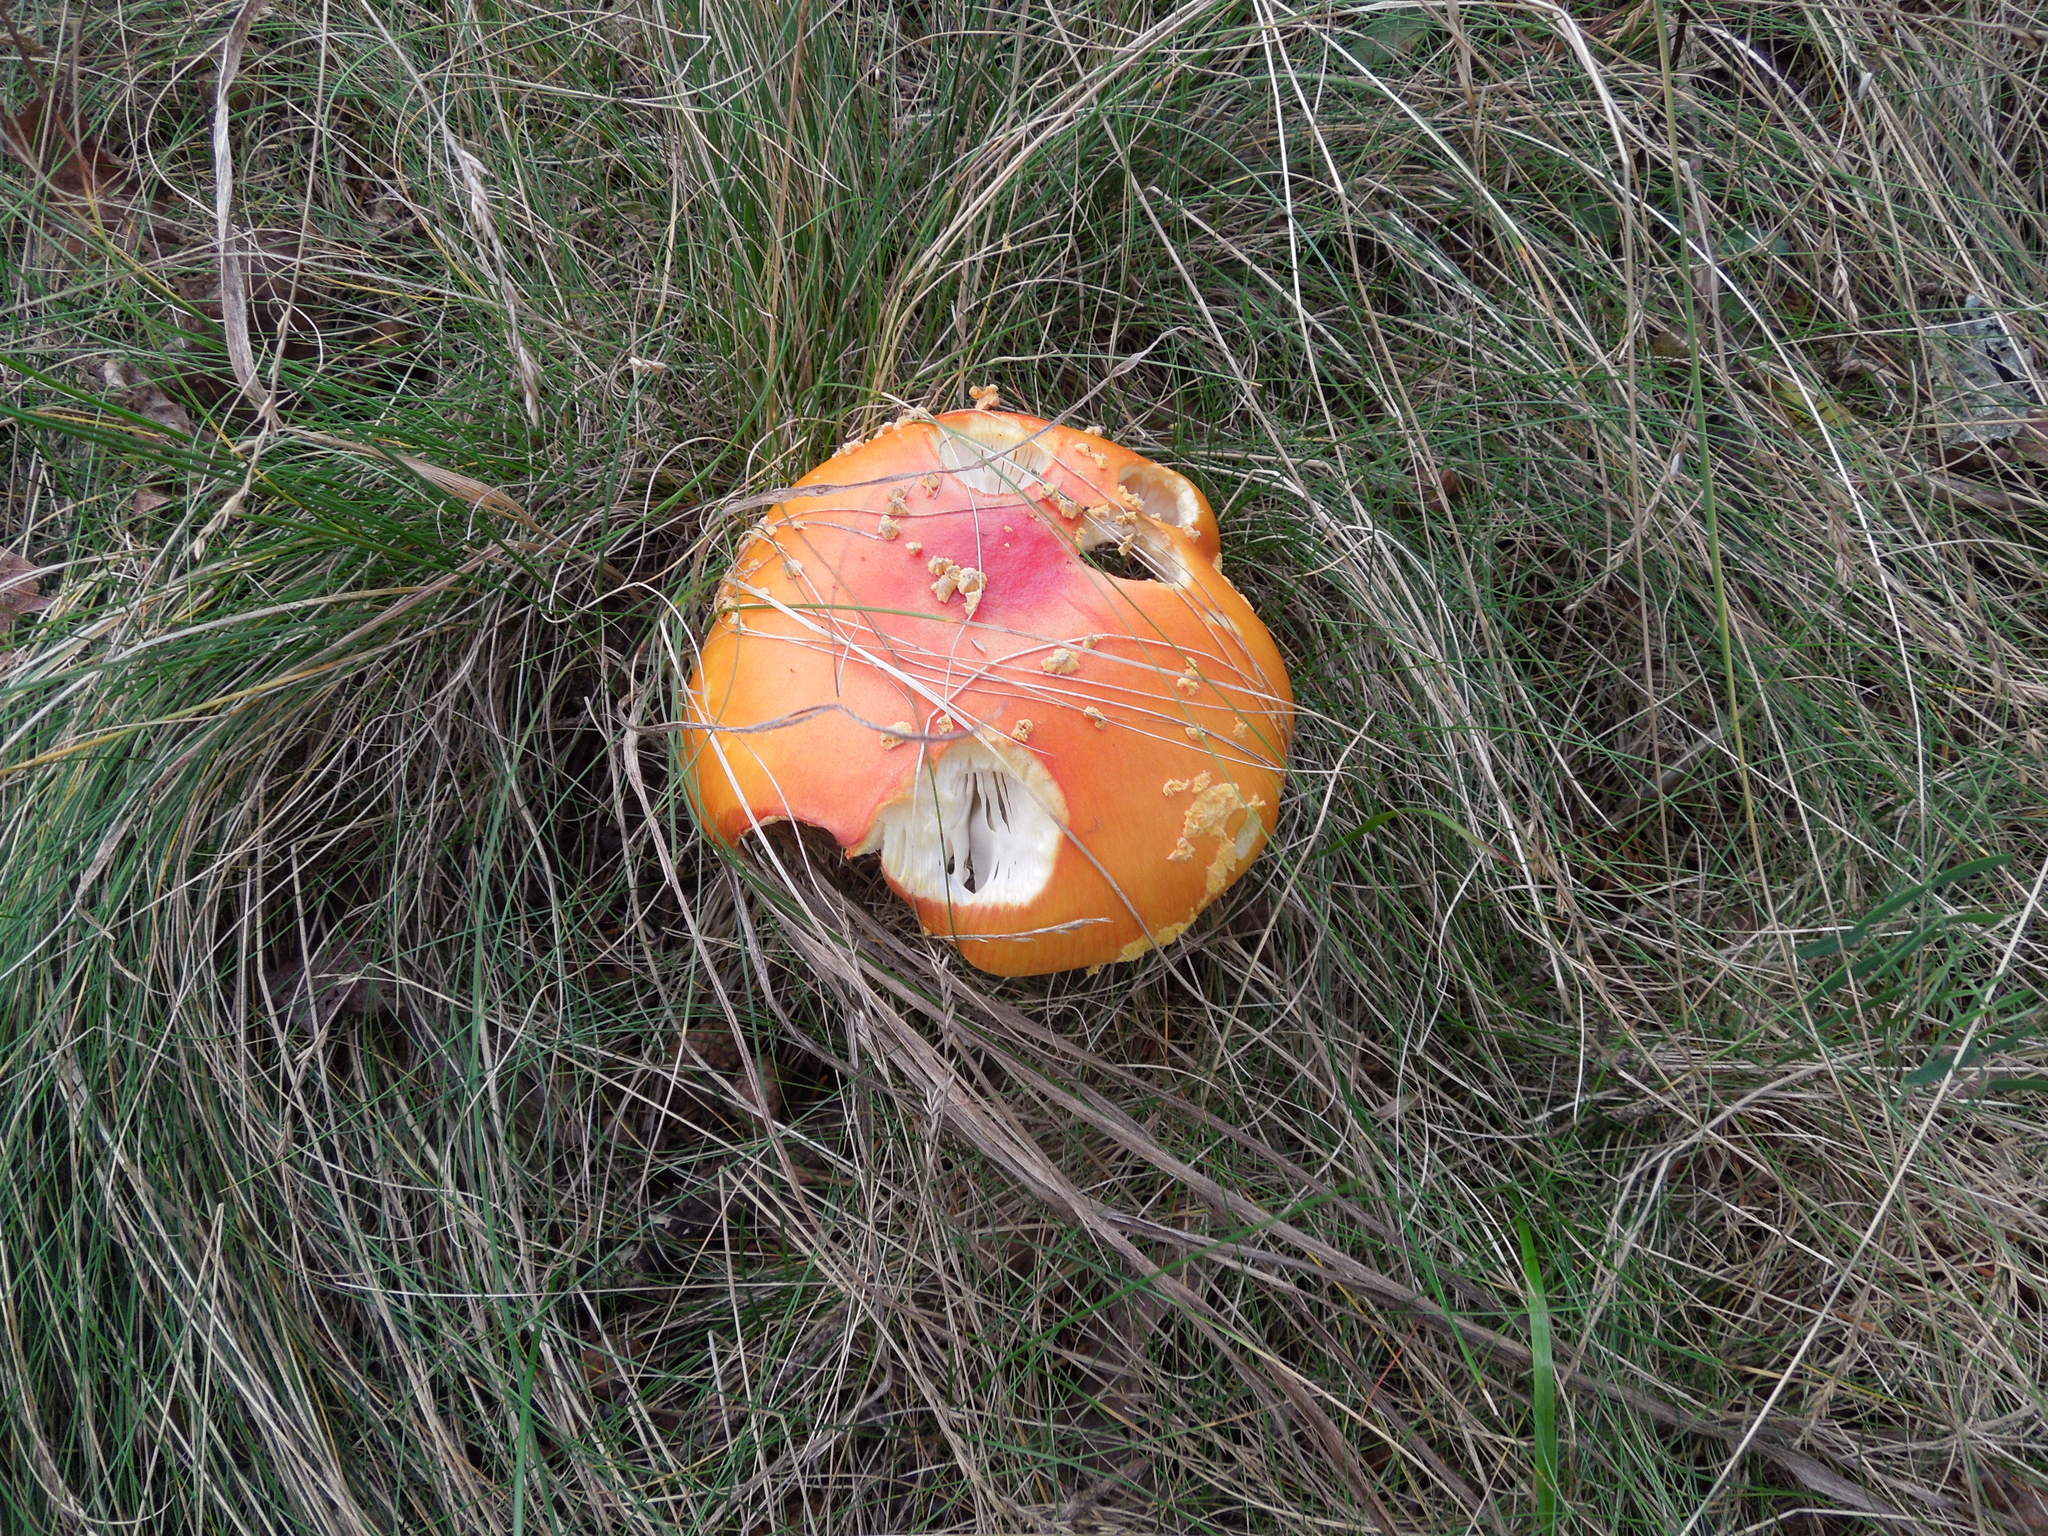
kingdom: Fungi
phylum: Basidiomycota
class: Agaricomycetes
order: Agaricales
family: Amanitaceae
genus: Amanita
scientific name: Amanita wellsii
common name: Salmon amanita
